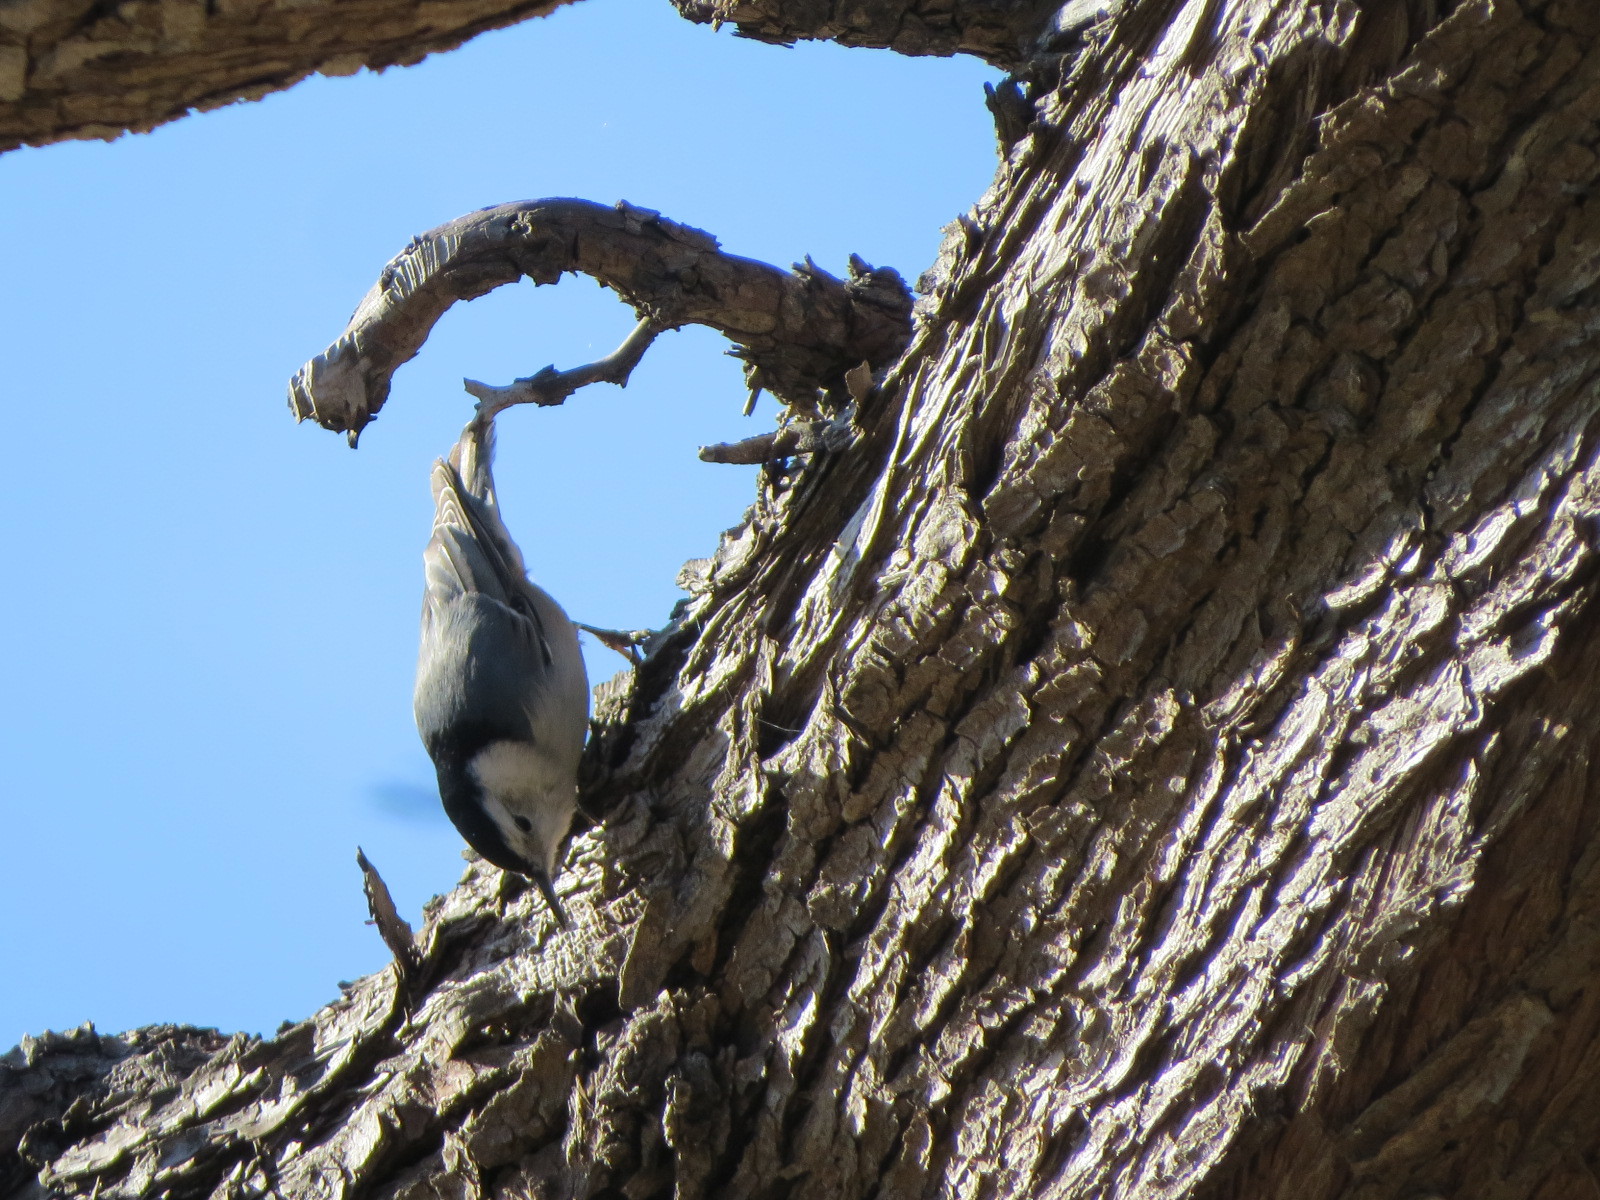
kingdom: Animalia
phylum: Chordata
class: Aves
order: Passeriformes
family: Sittidae
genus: Sitta
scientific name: Sitta carolinensis
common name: White-breasted nuthatch
